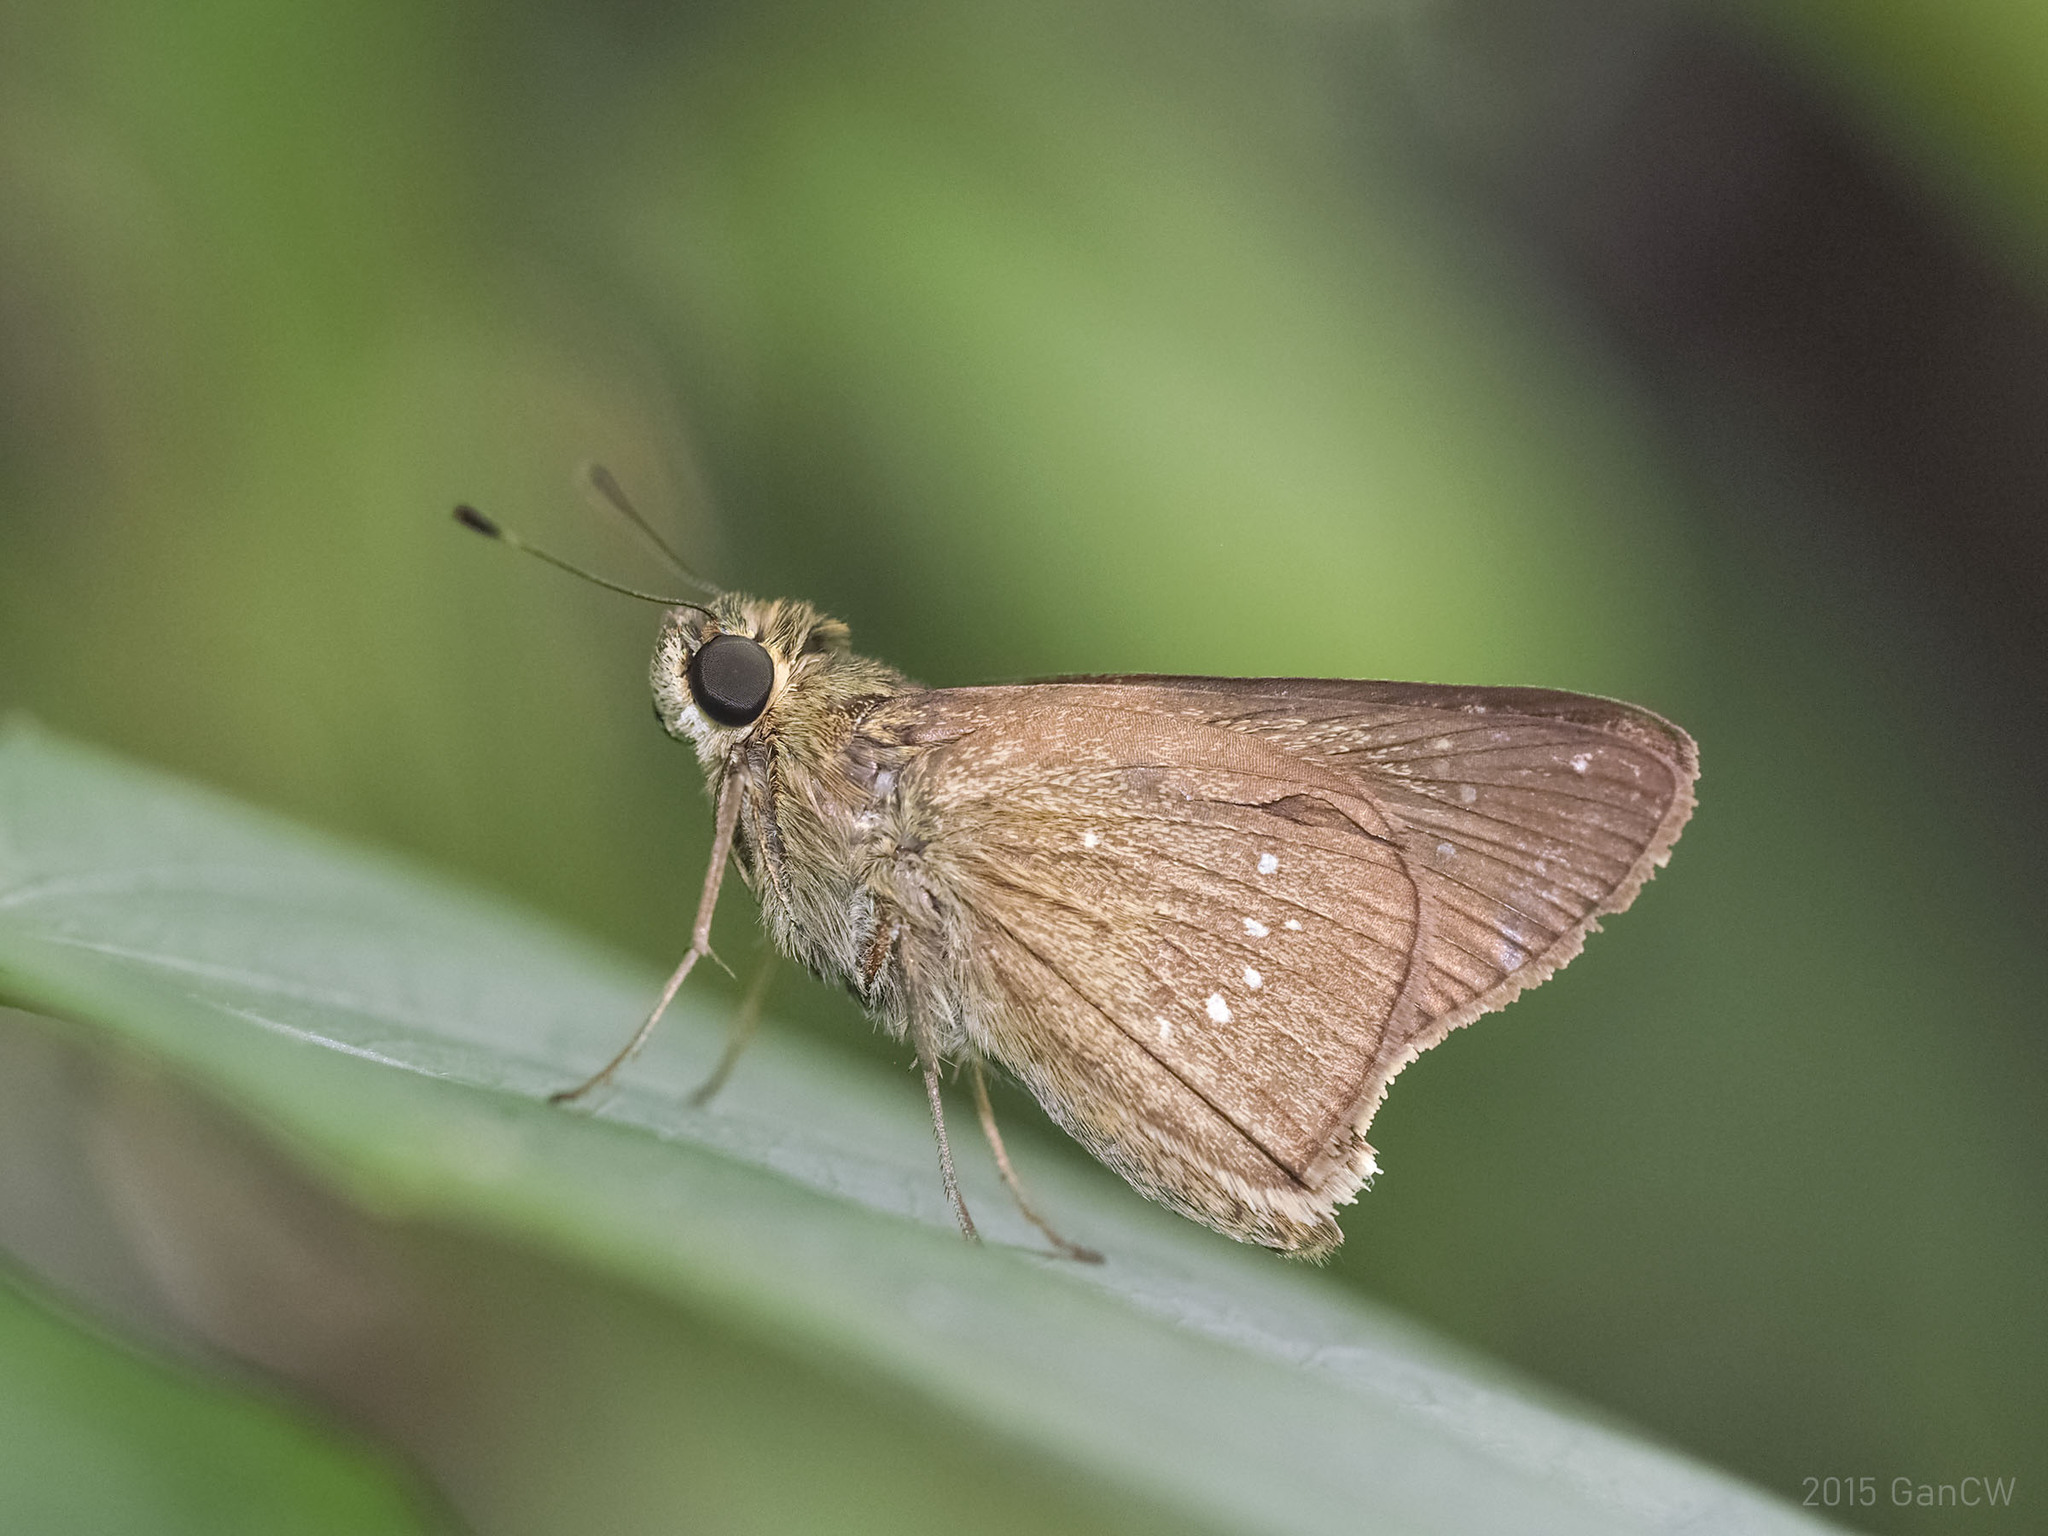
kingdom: Animalia
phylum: Arthropoda
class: Insecta
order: Lepidoptera
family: Hesperiidae
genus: Pelopidas
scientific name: Pelopidas mathias
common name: Black-branded swift
